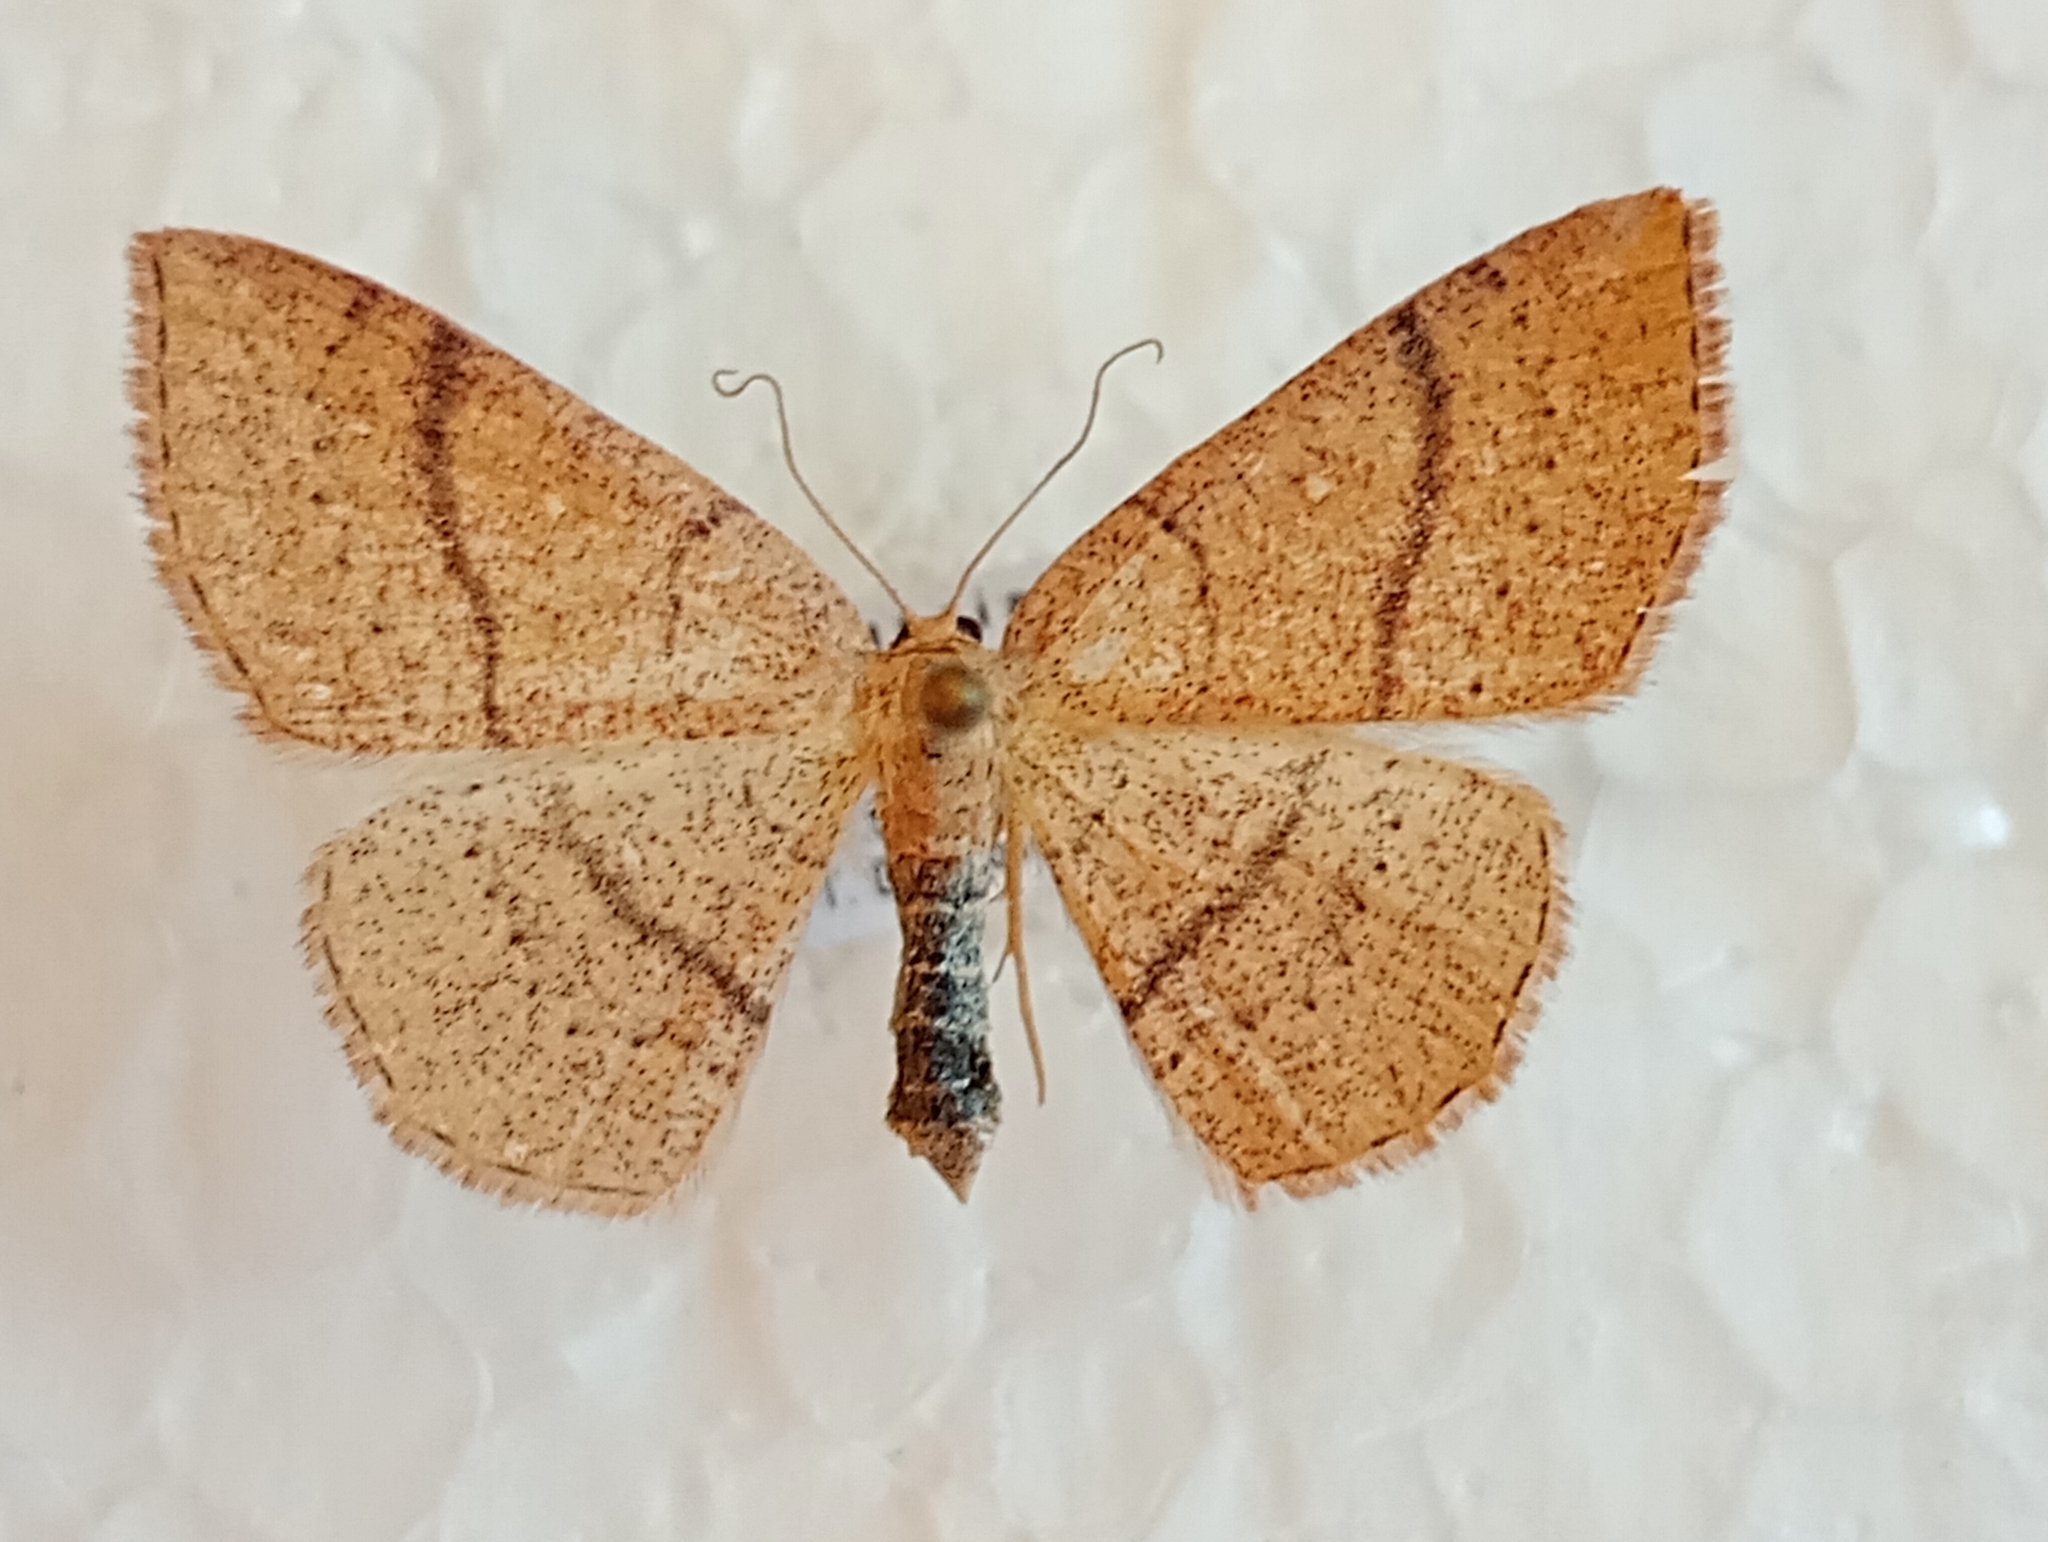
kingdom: Animalia
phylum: Arthropoda
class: Insecta
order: Lepidoptera
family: Geometridae
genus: Cyclophora
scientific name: Cyclophora ruficiliaria
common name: Jersey mocha
